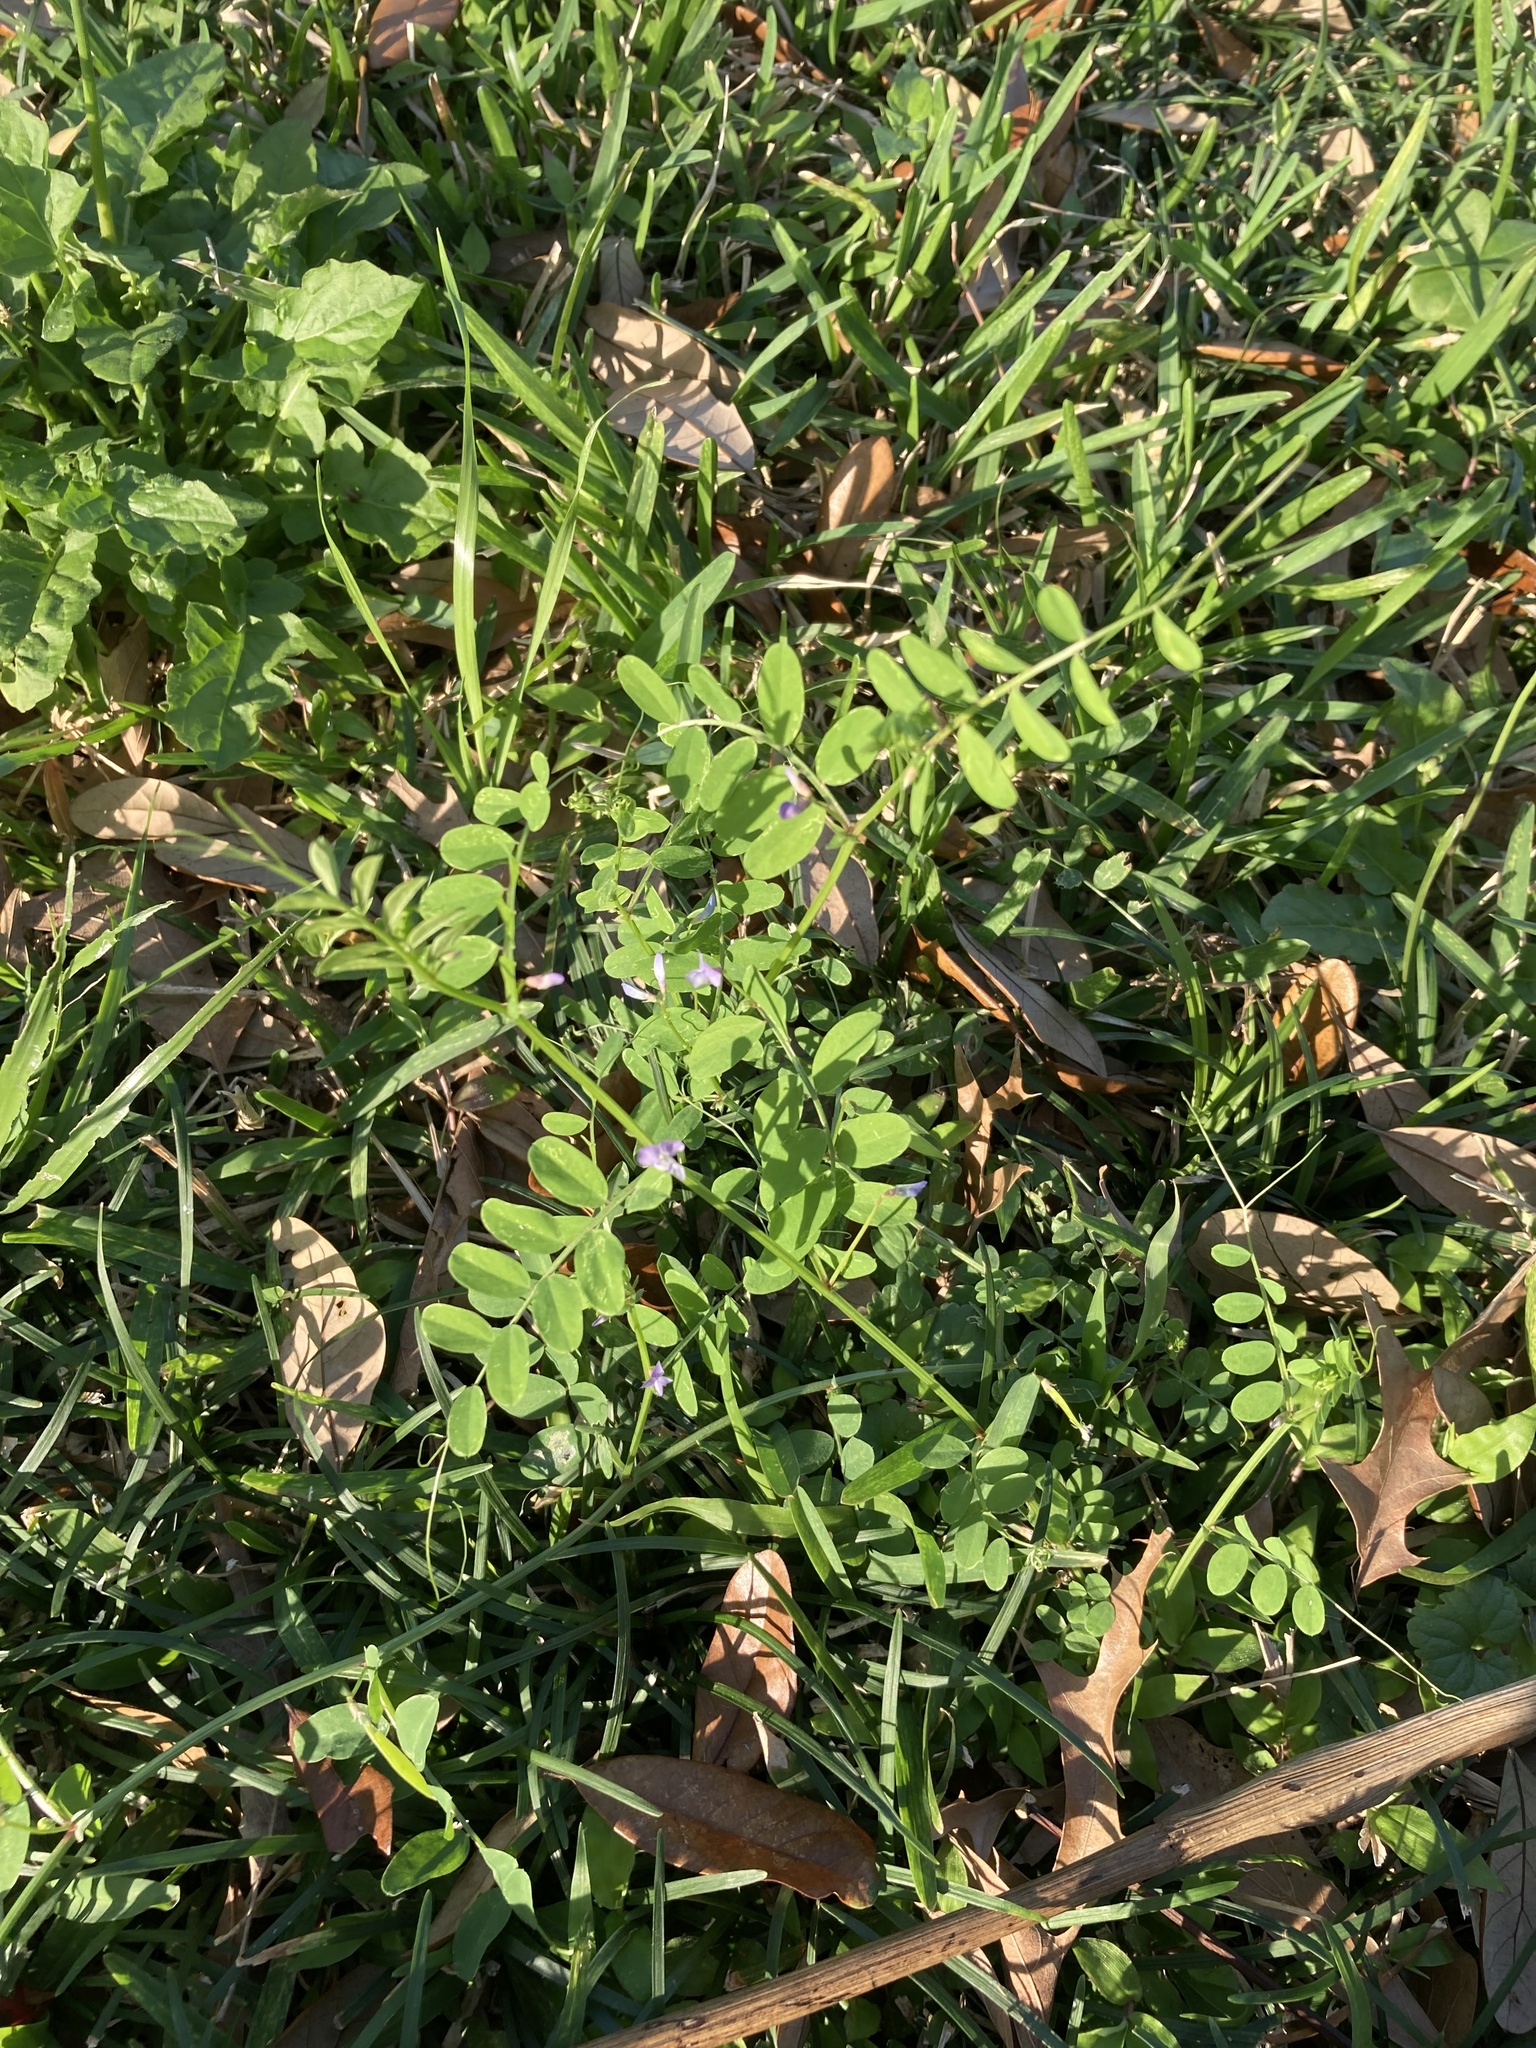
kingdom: Plantae
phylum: Tracheophyta
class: Magnoliopsida
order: Fabales
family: Fabaceae
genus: Vicia
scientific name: Vicia ludoviciana
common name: Louisiana vetch
